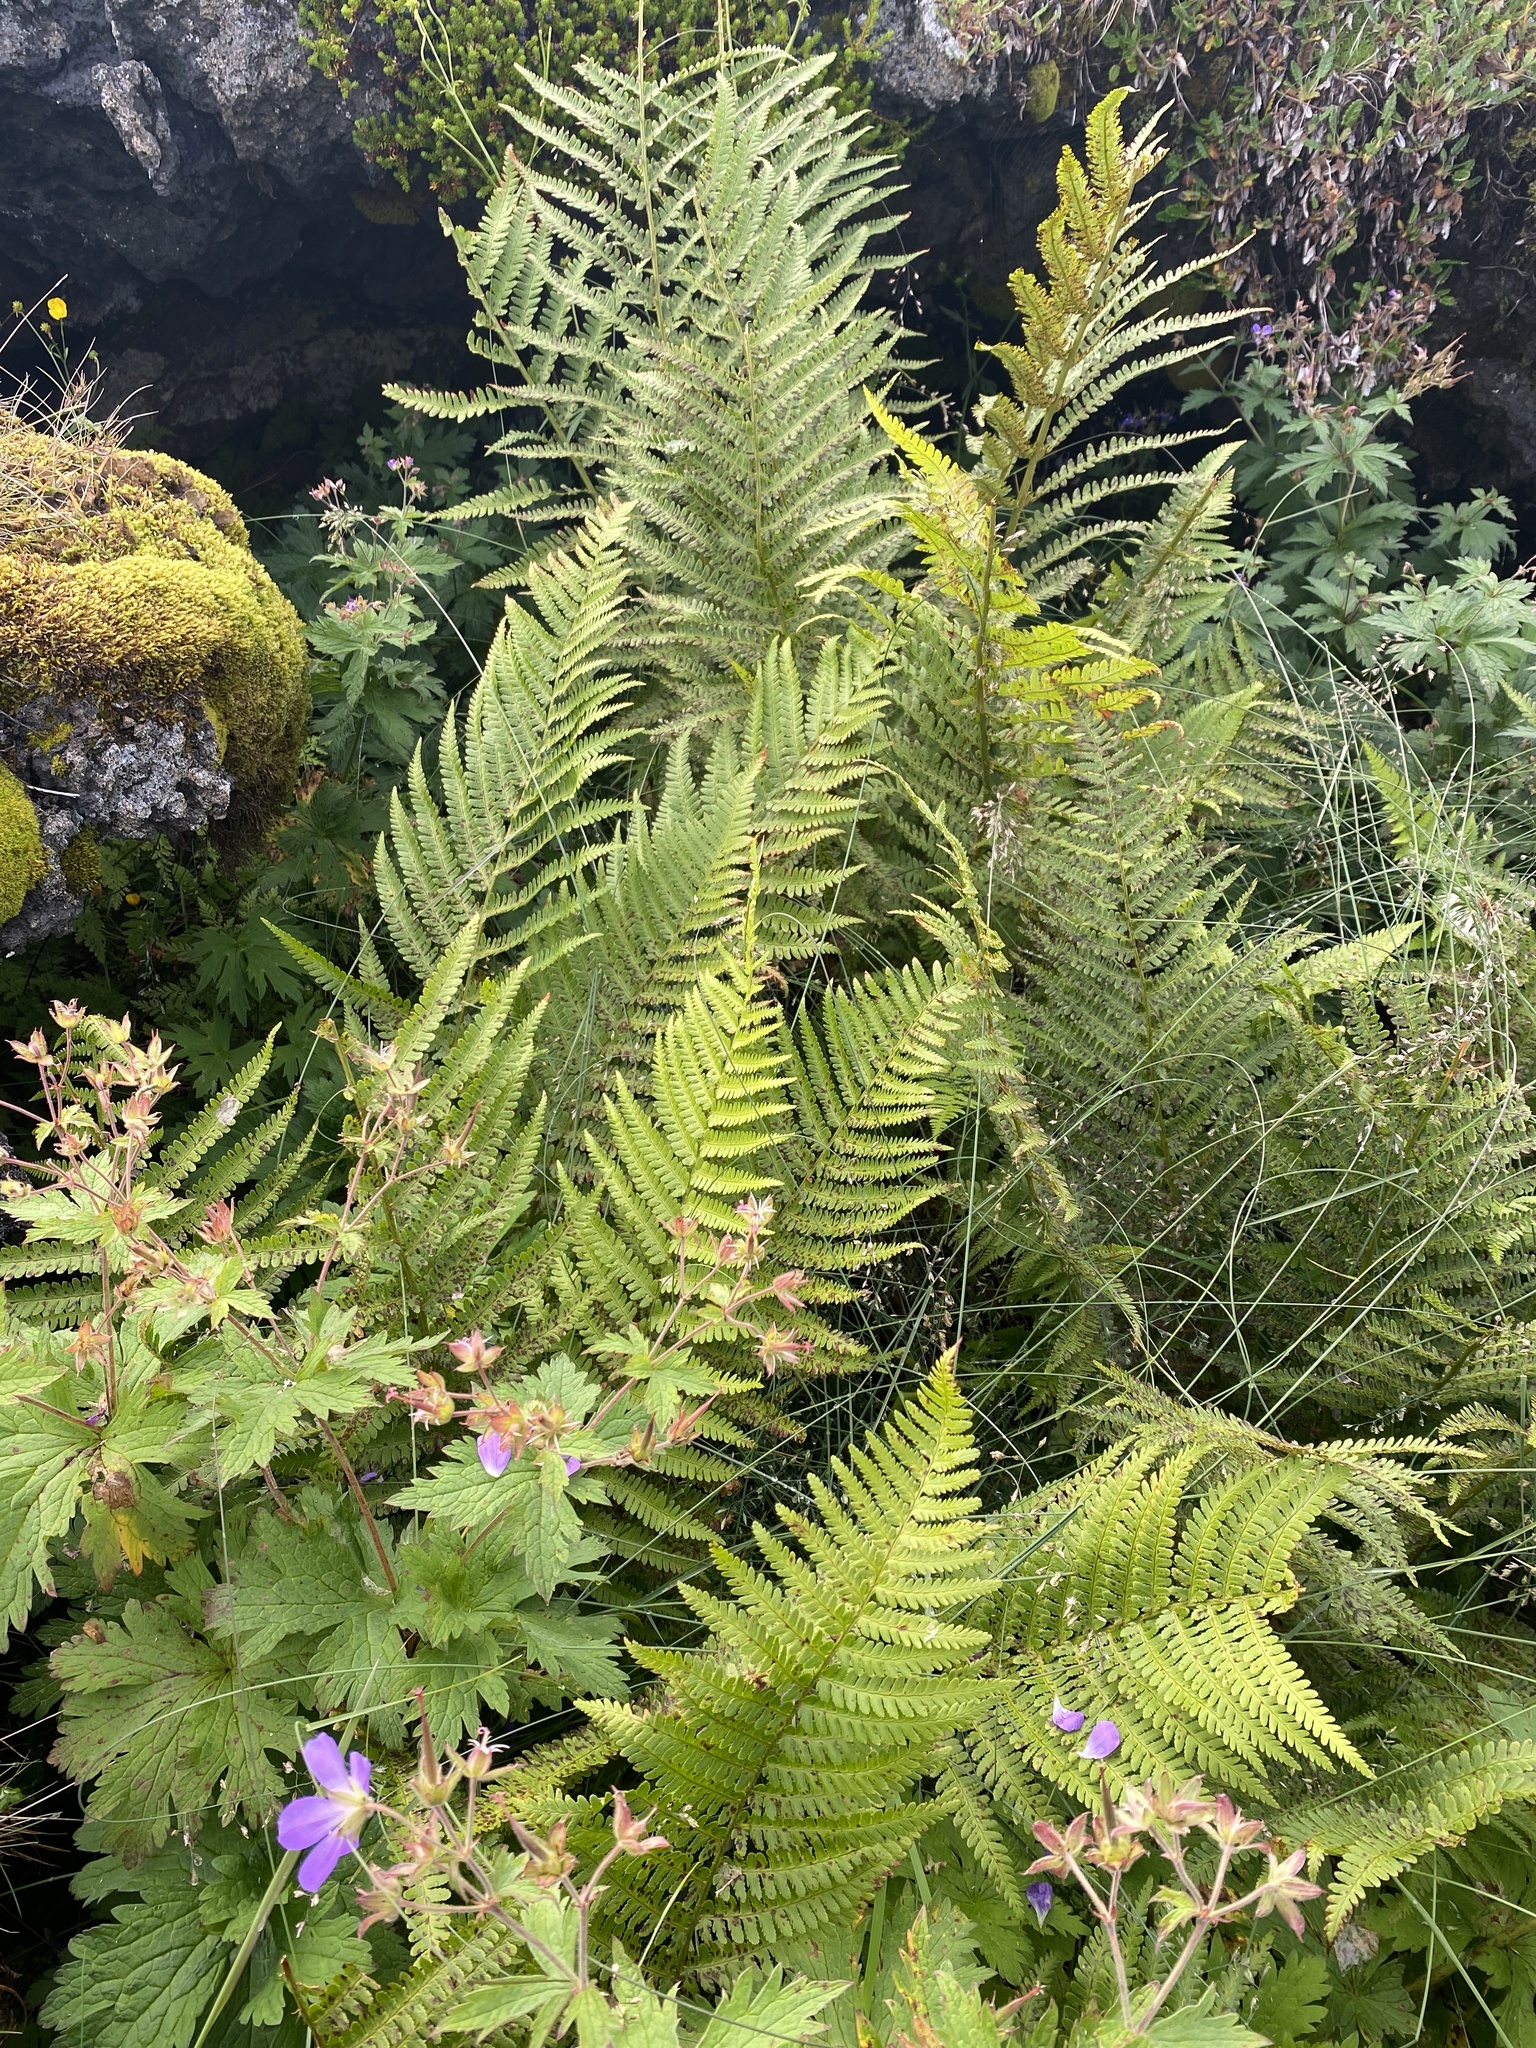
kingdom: Plantae
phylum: Tracheophyta
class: Polypodiopsida
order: Polypodiales
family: Dryopteridaceae
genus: Dryopteris
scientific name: Dryopteris filix-mas
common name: Male fern
